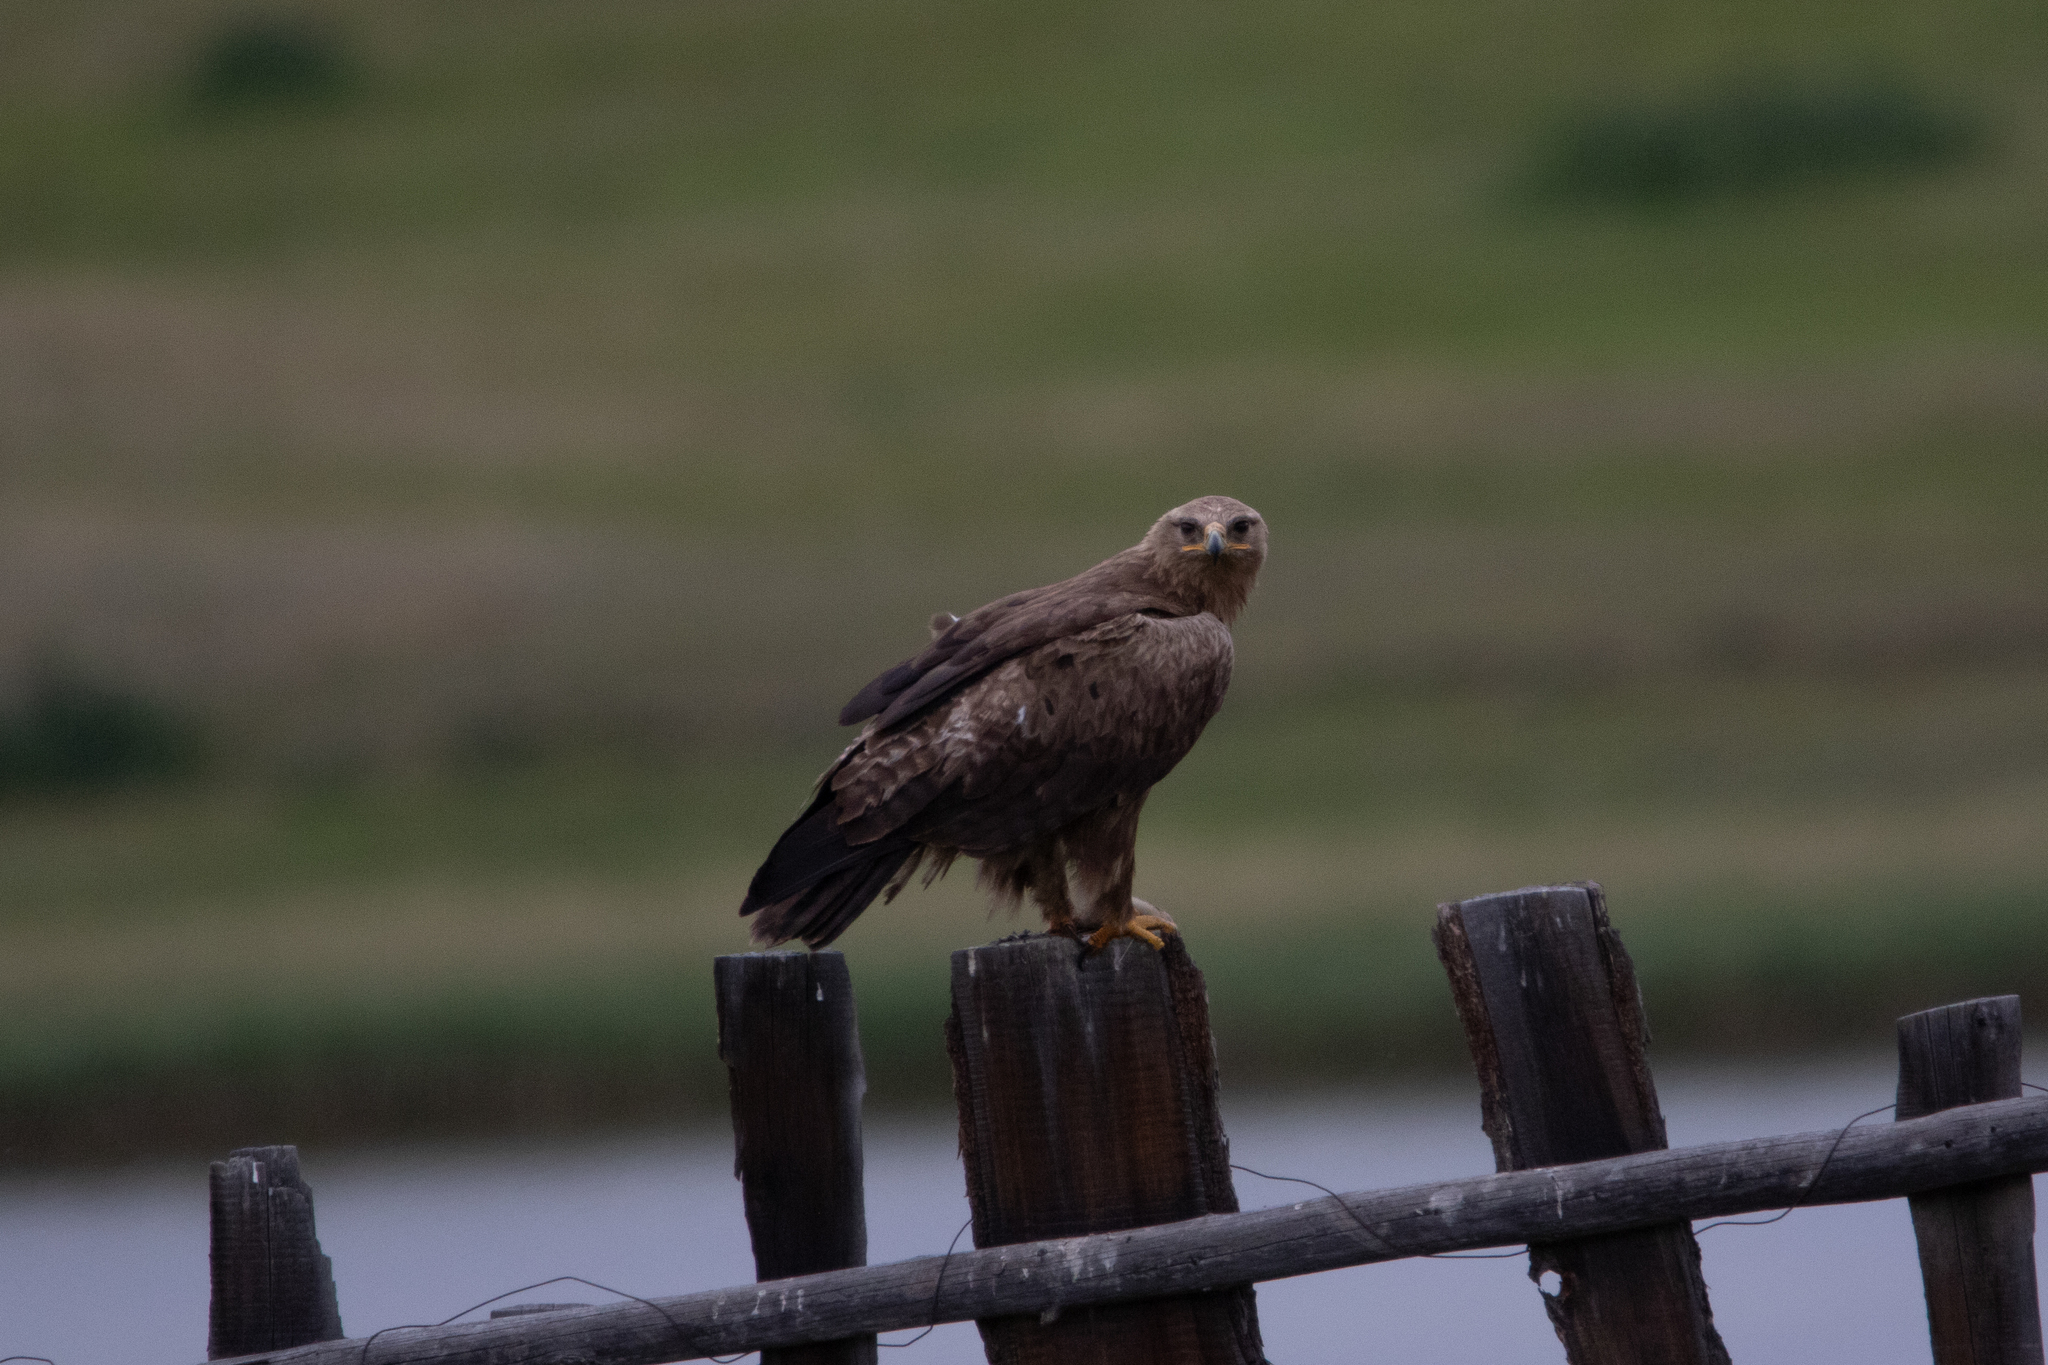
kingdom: Animalia
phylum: Chordata
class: Aves
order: Accipitriformes
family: Accipitridae
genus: Aquila
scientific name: Aquila nipalensis
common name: Steppe eagle
